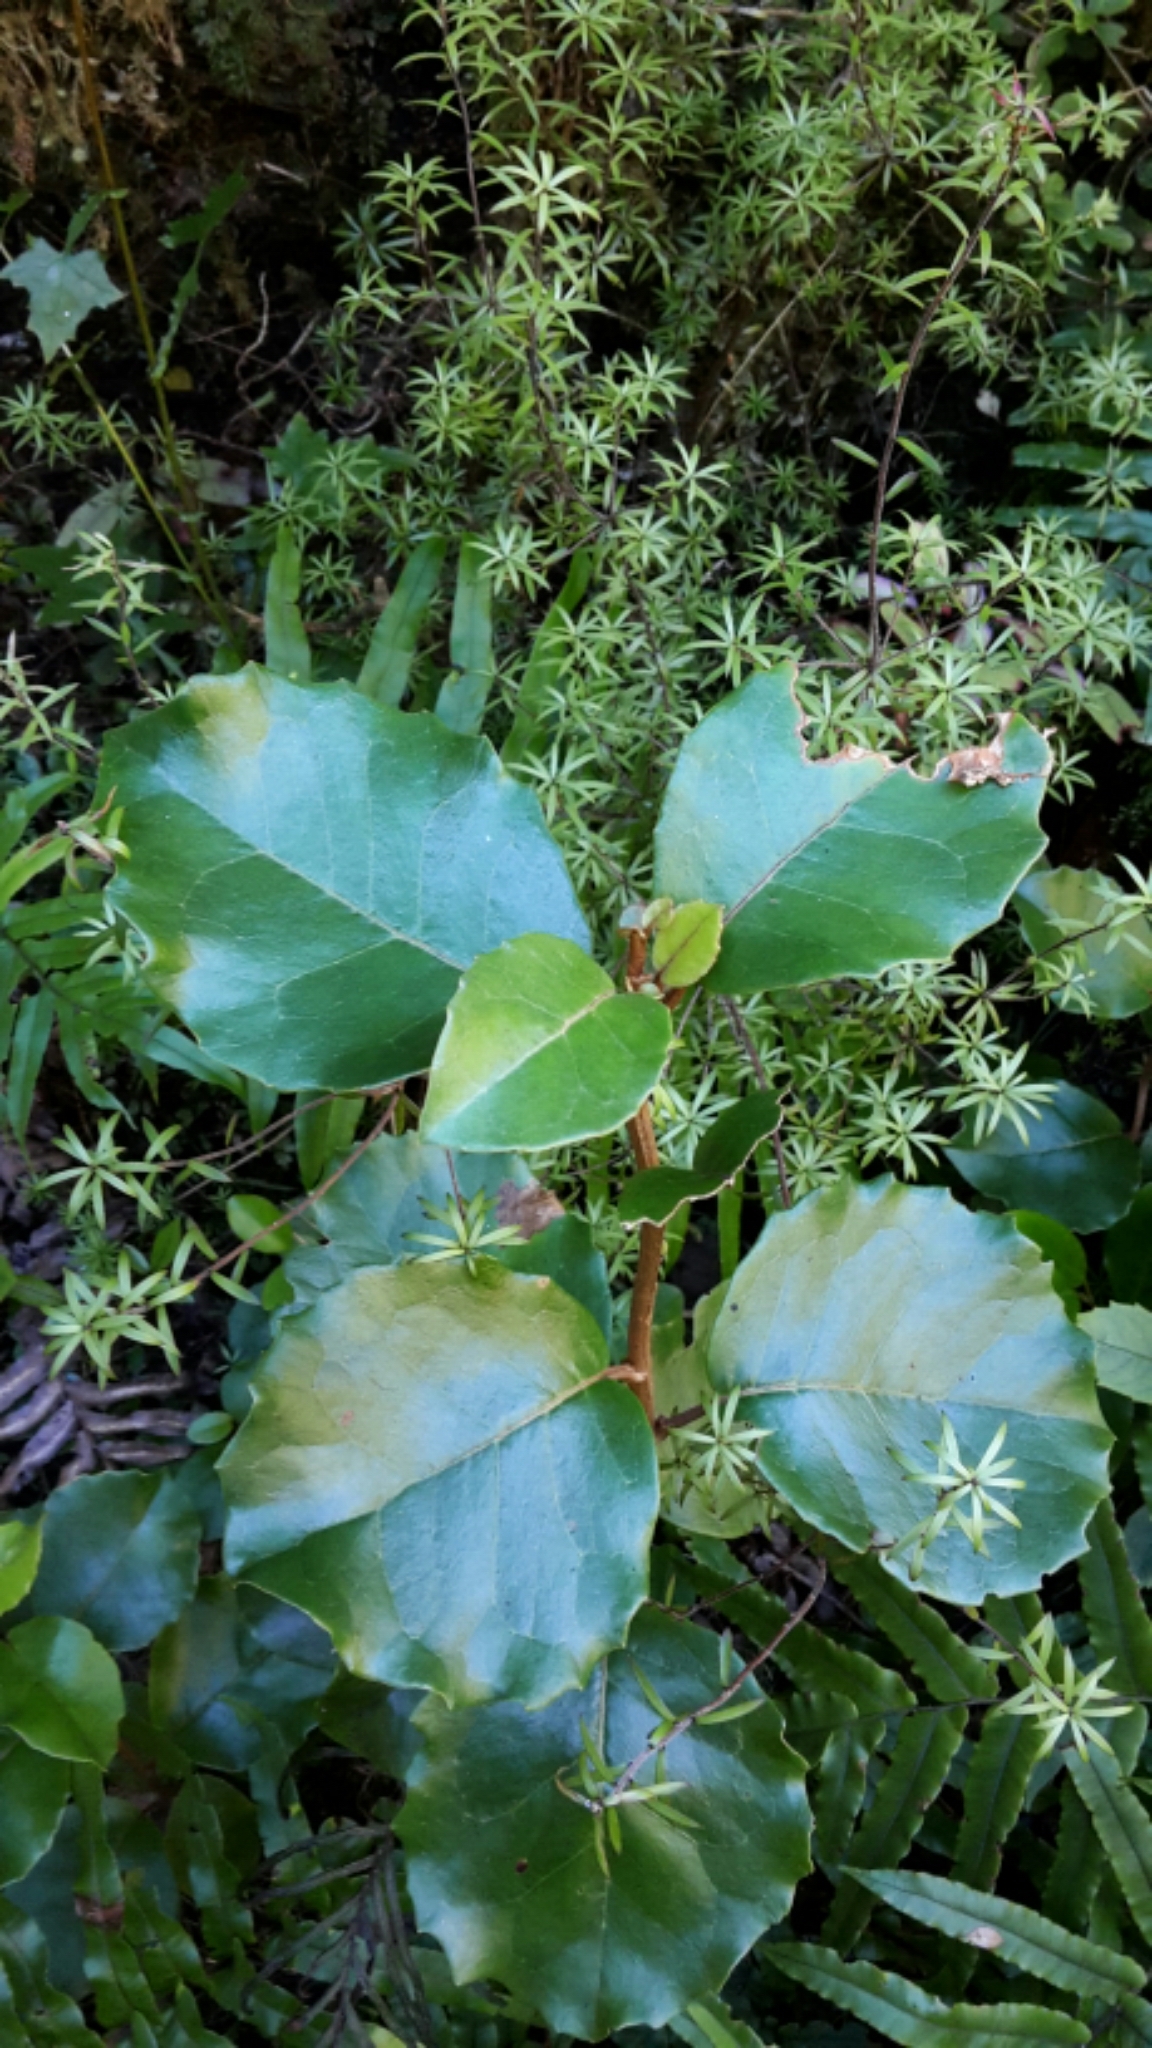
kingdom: Plantae
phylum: Tracheophyta
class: Magnoliopsida
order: Asterales
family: Asteraceae
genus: Olearia
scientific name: Olearia arborescens
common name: Glossy tree daisy
